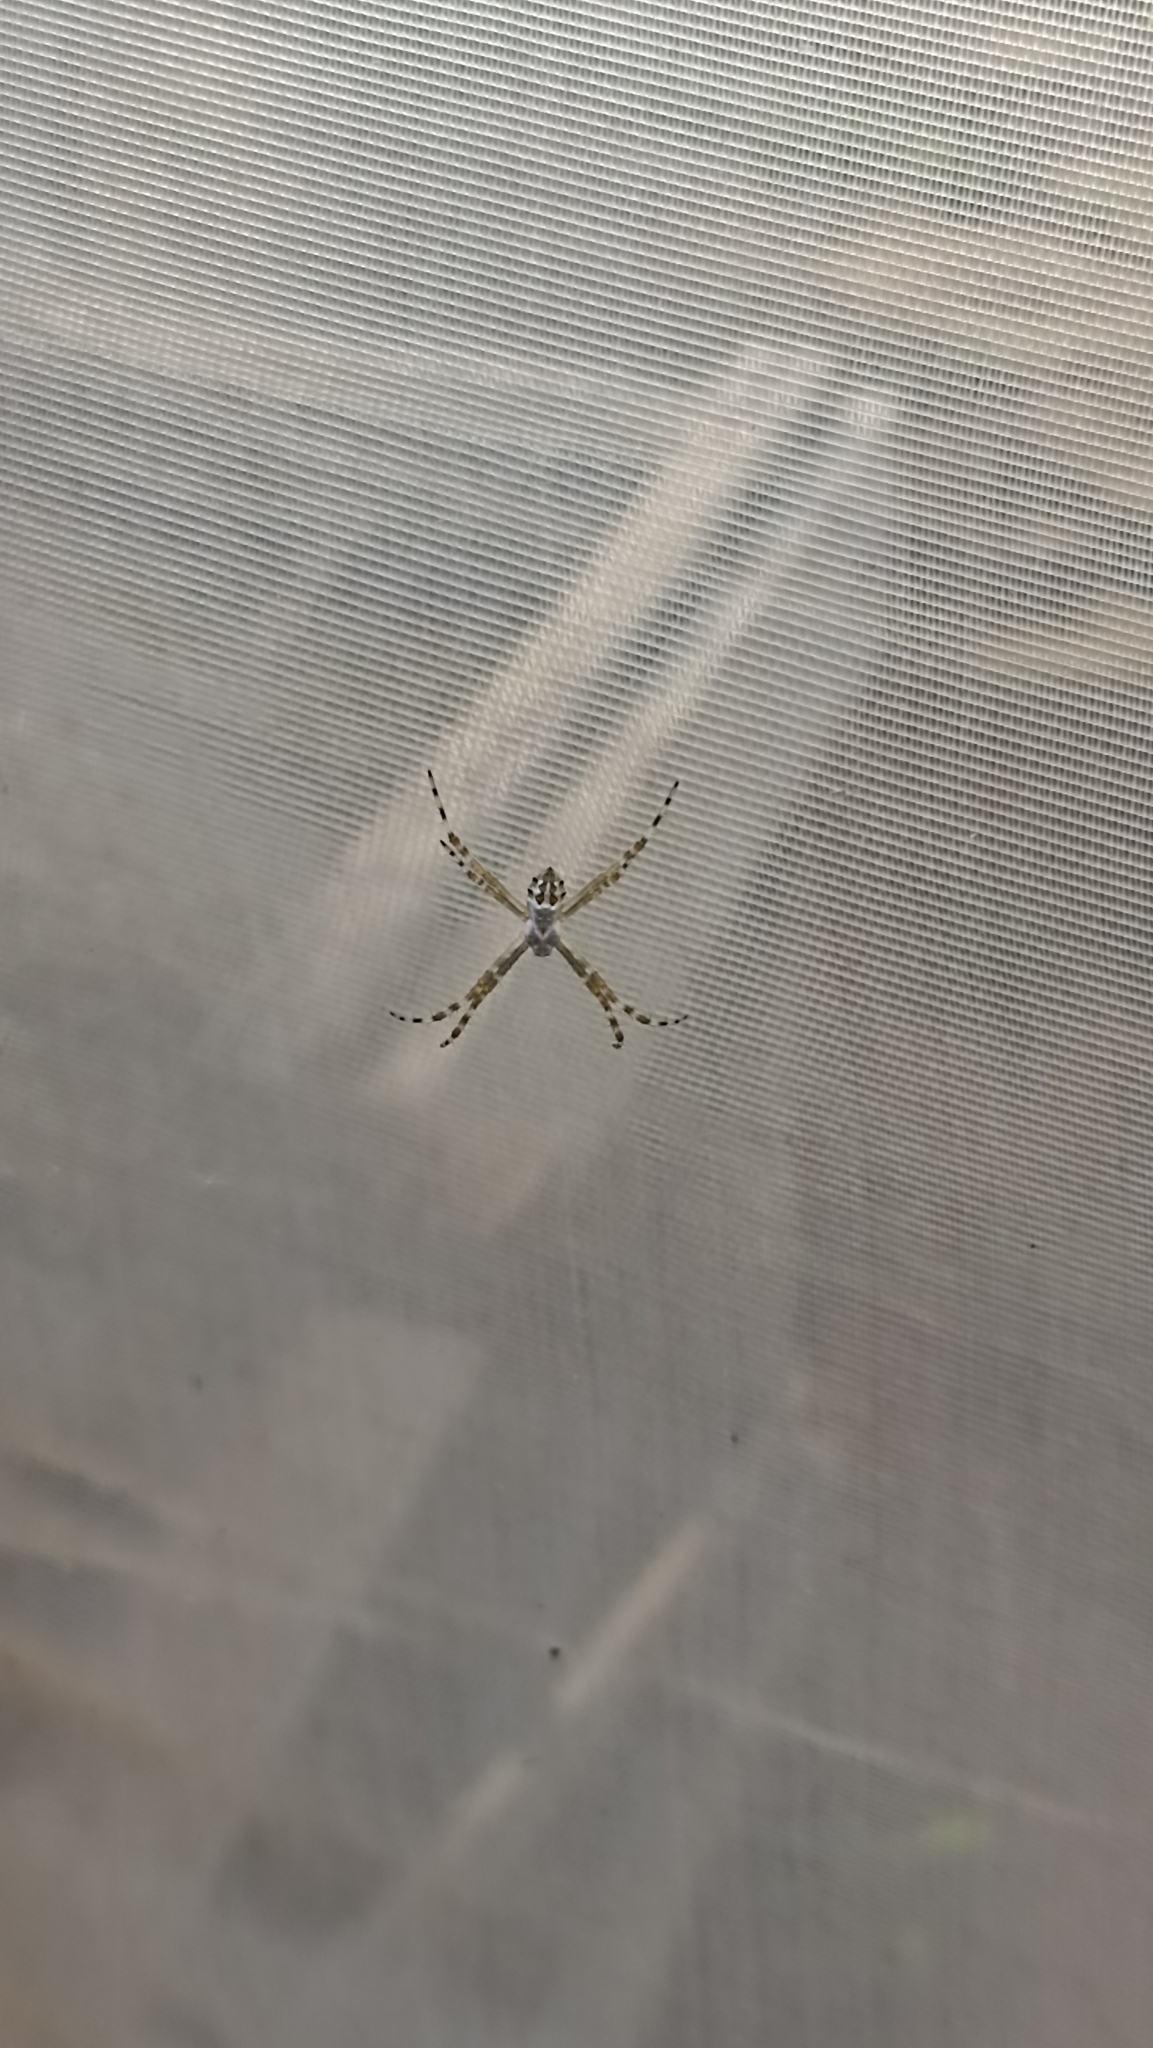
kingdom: Animalia
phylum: Arthropoda
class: Arachnida
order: Araneae
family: Araneidae
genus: Argiope
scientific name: Argiope argentata
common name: Orb weavers
